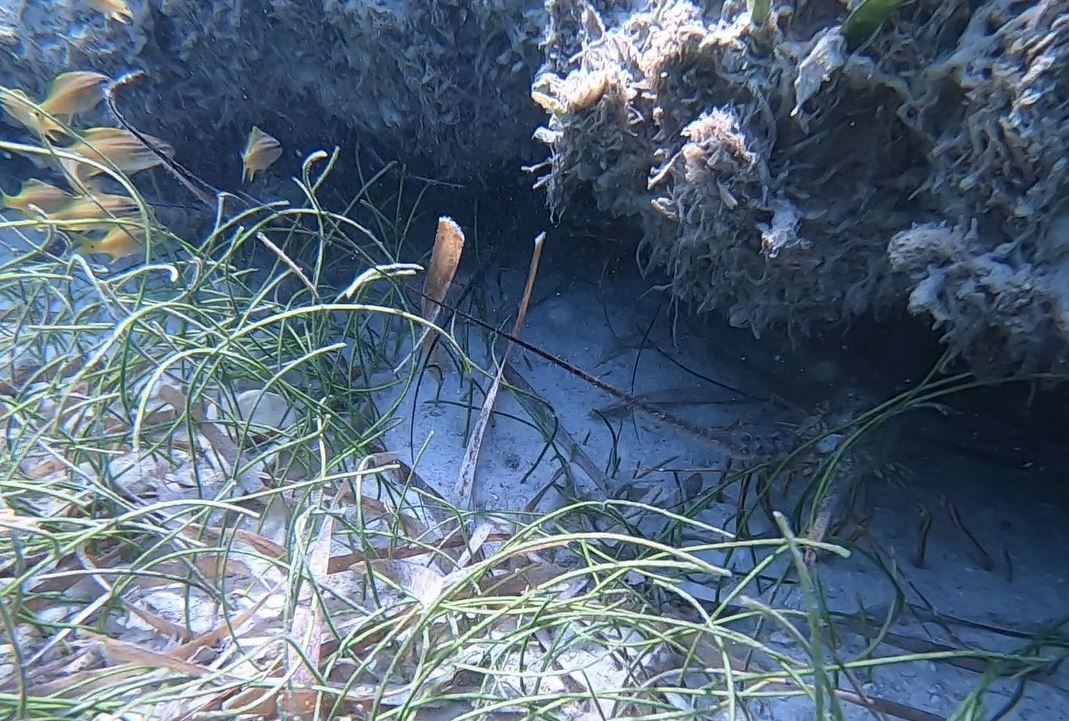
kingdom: Animalia
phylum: Arthropoda
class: Malacostraca
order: Decapoda
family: Palinuridae
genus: Panulirus
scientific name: Panulirus argus
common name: Caribbean spiny lobster
